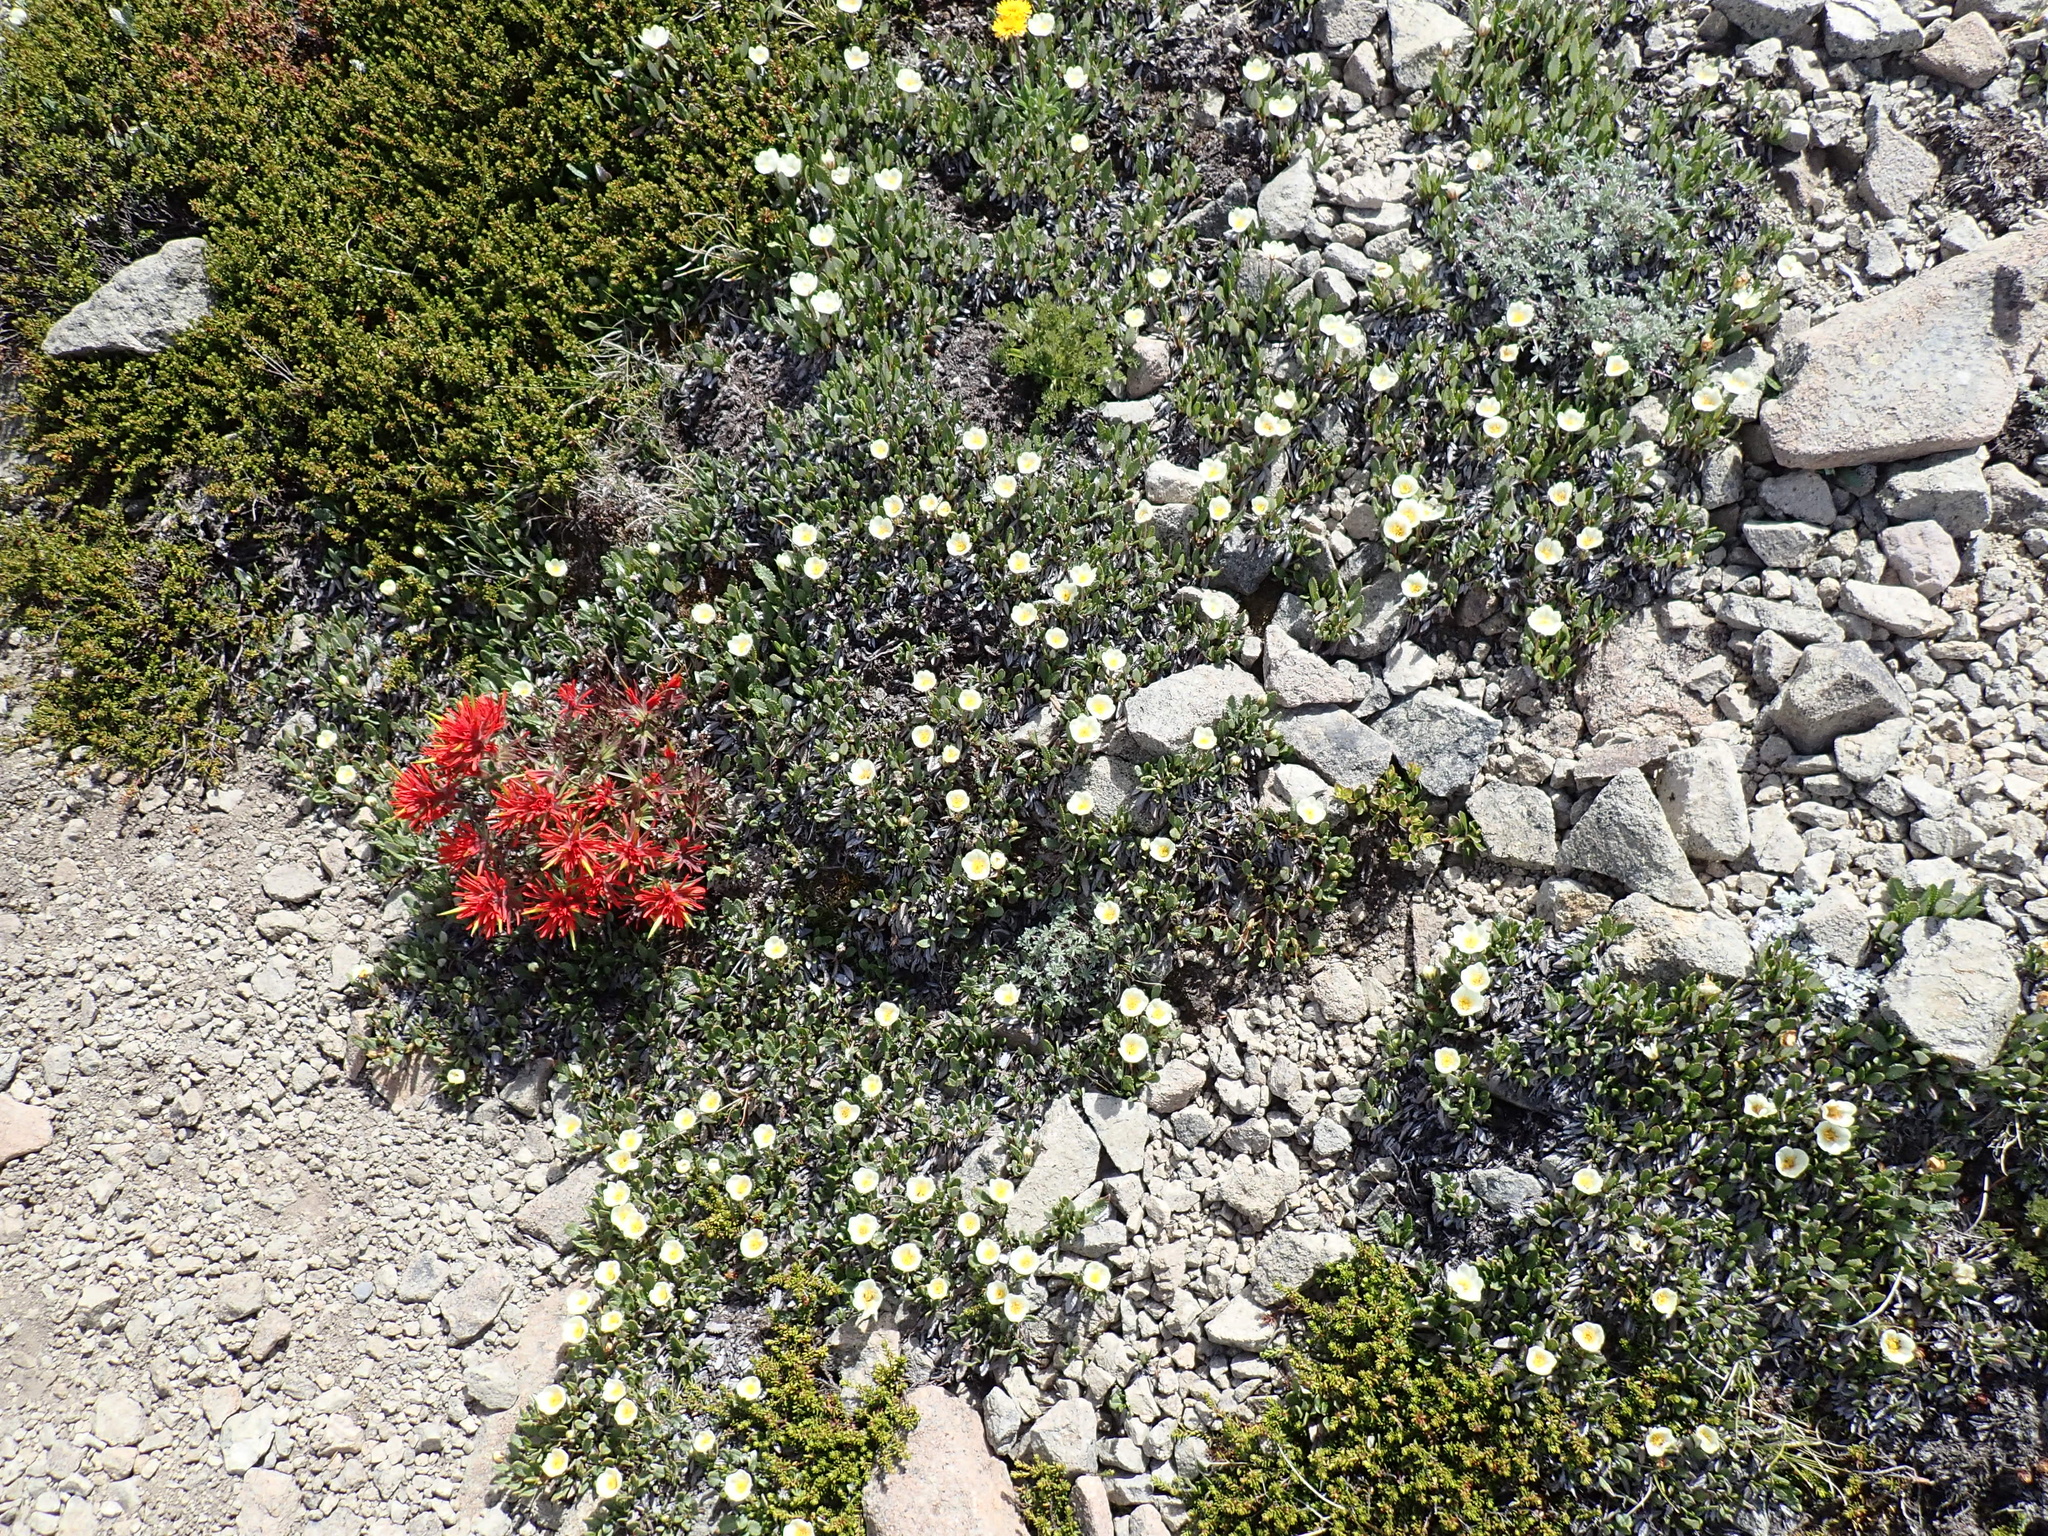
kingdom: Plantae
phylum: Tracheophyta
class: Magnoliopsida
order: Rosales
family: Rosaceae
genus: Dryas
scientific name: Dryas octopetala
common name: Eight-petal mountain-avens
